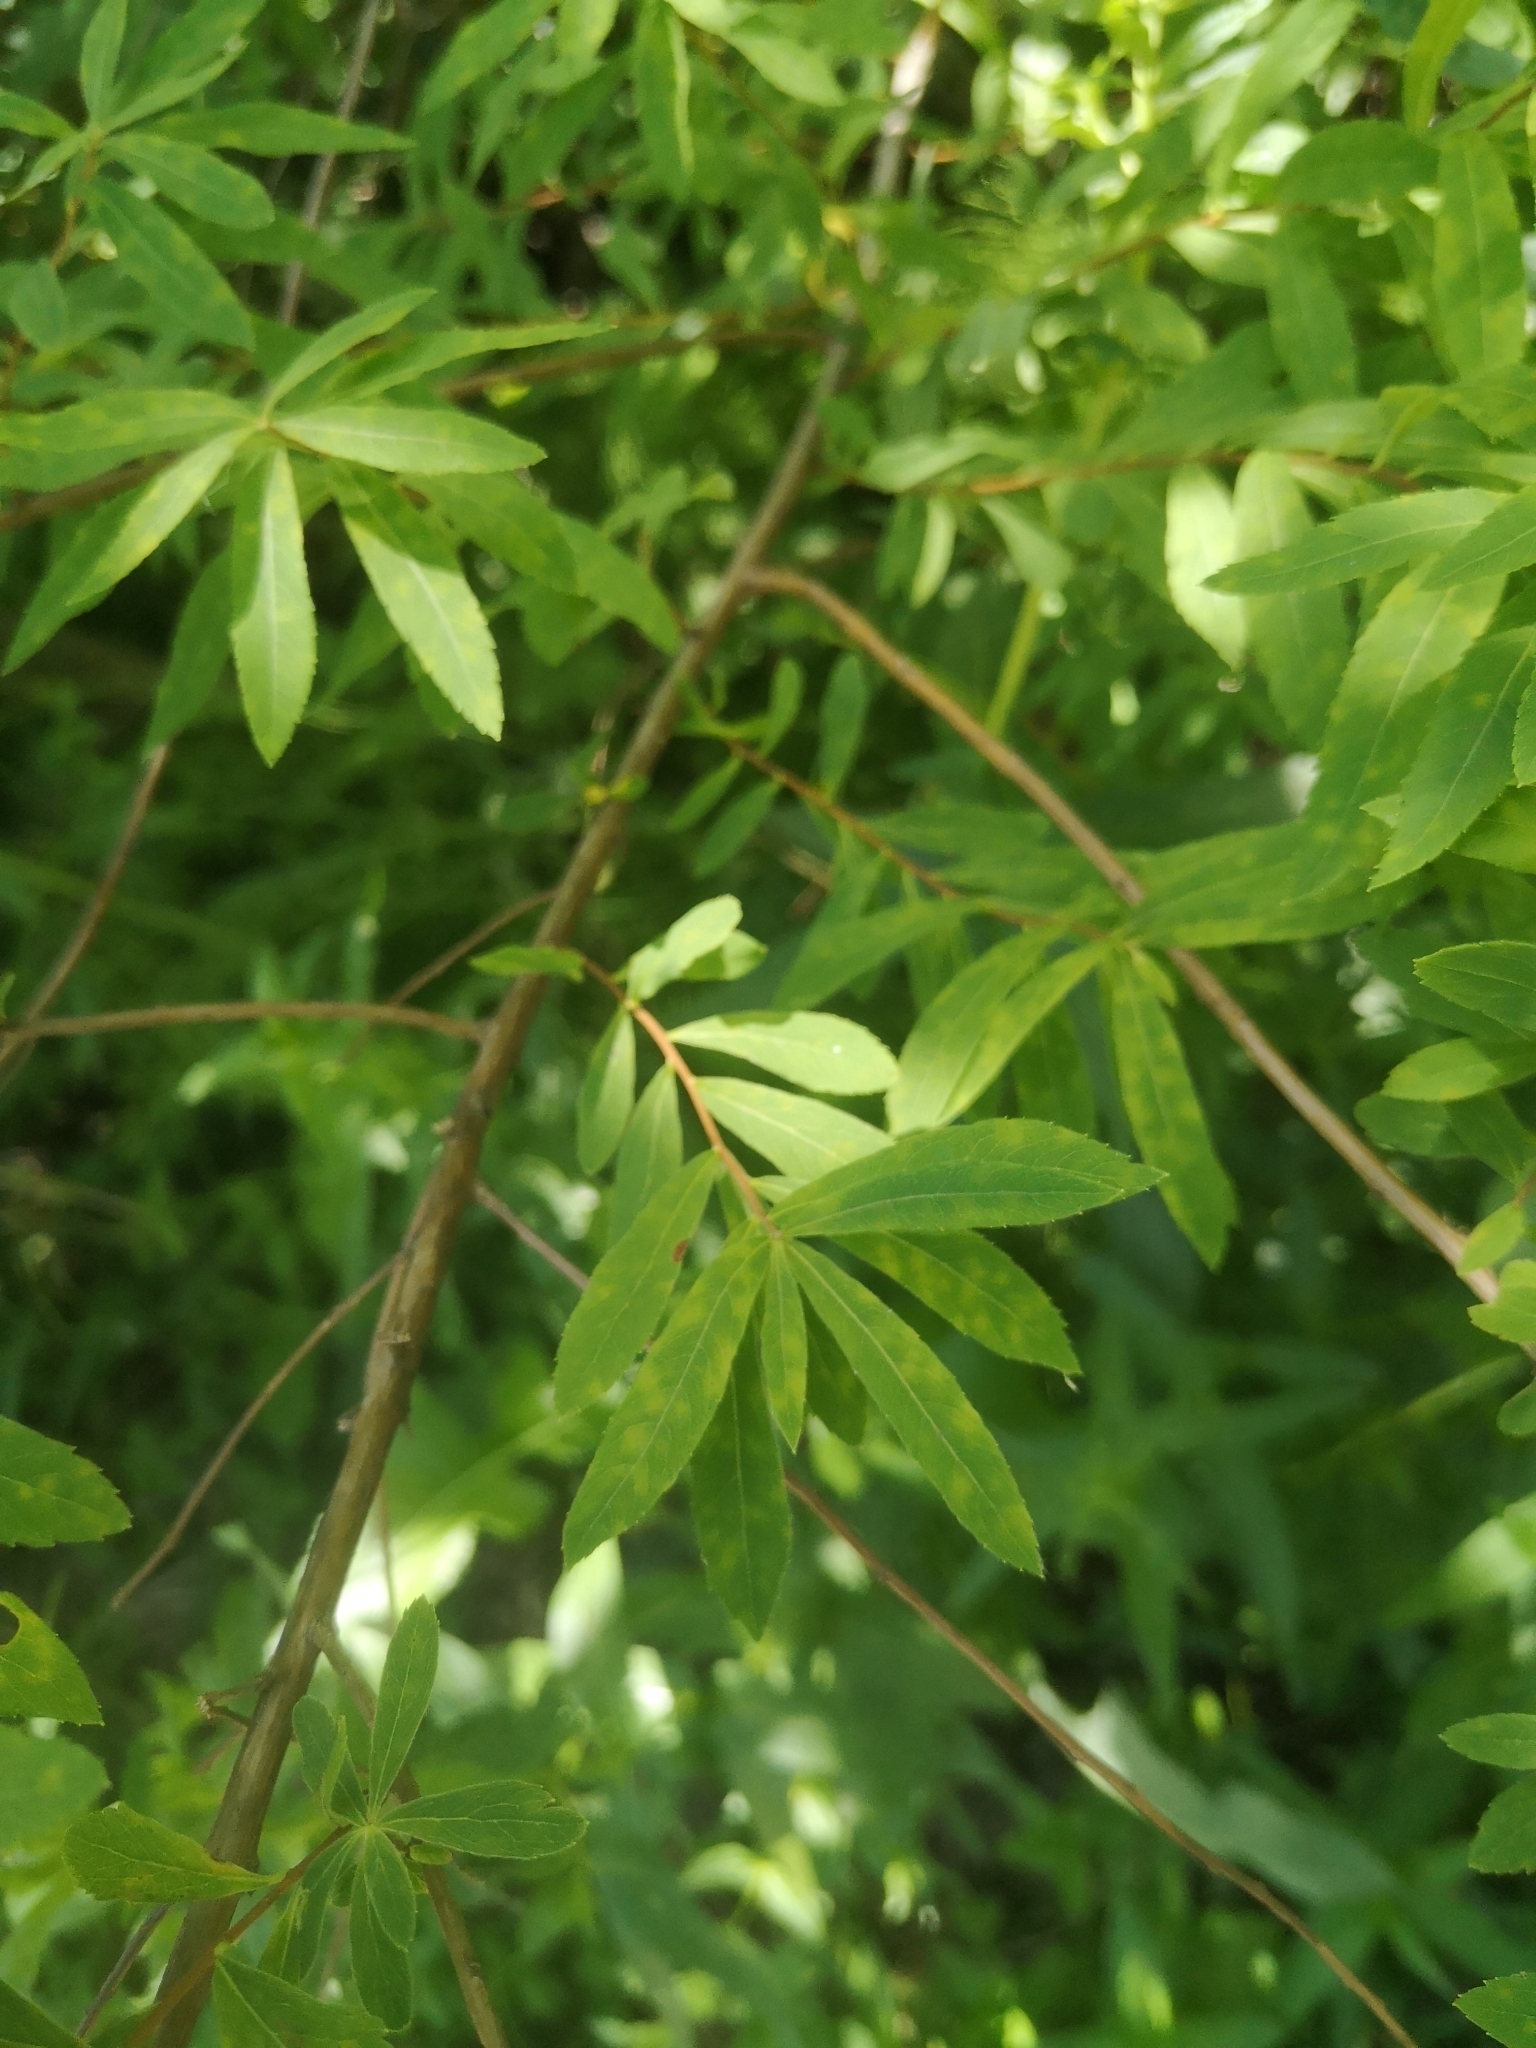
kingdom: Plantae
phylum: Tracheophyta
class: Magnoliopsida
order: Rosales
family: Rosaceae
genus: Spiraea
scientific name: Spiraea alba
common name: Pale bridewort
